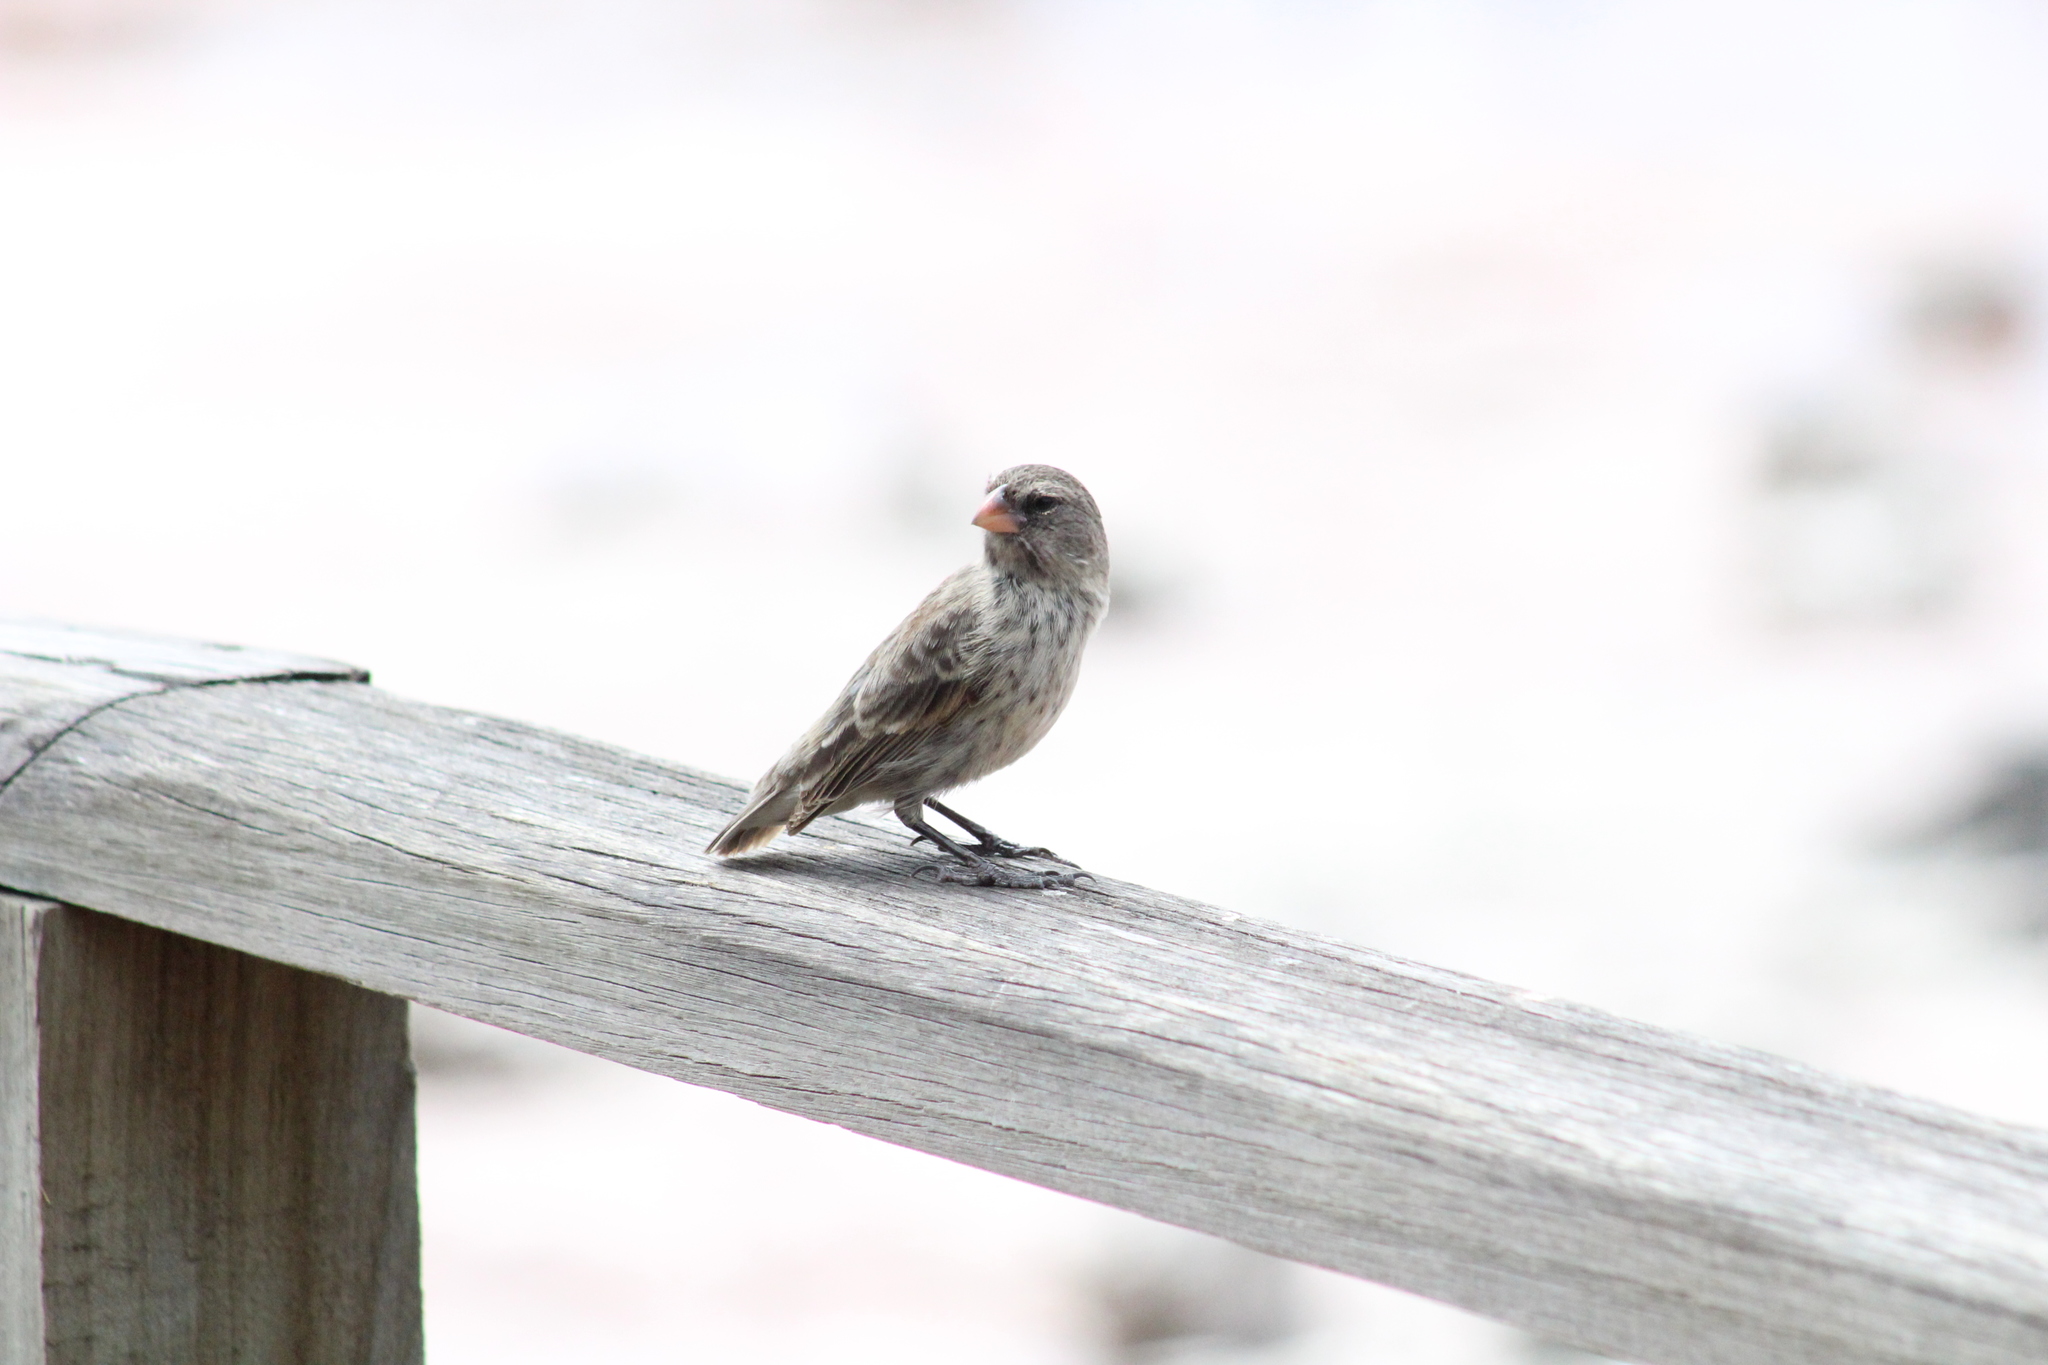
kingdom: Animalia
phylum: Chordata
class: Aves
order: Passeriformes
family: Thraupidae
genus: Geospiza
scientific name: Geospiza fortis
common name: Medium ground finch
